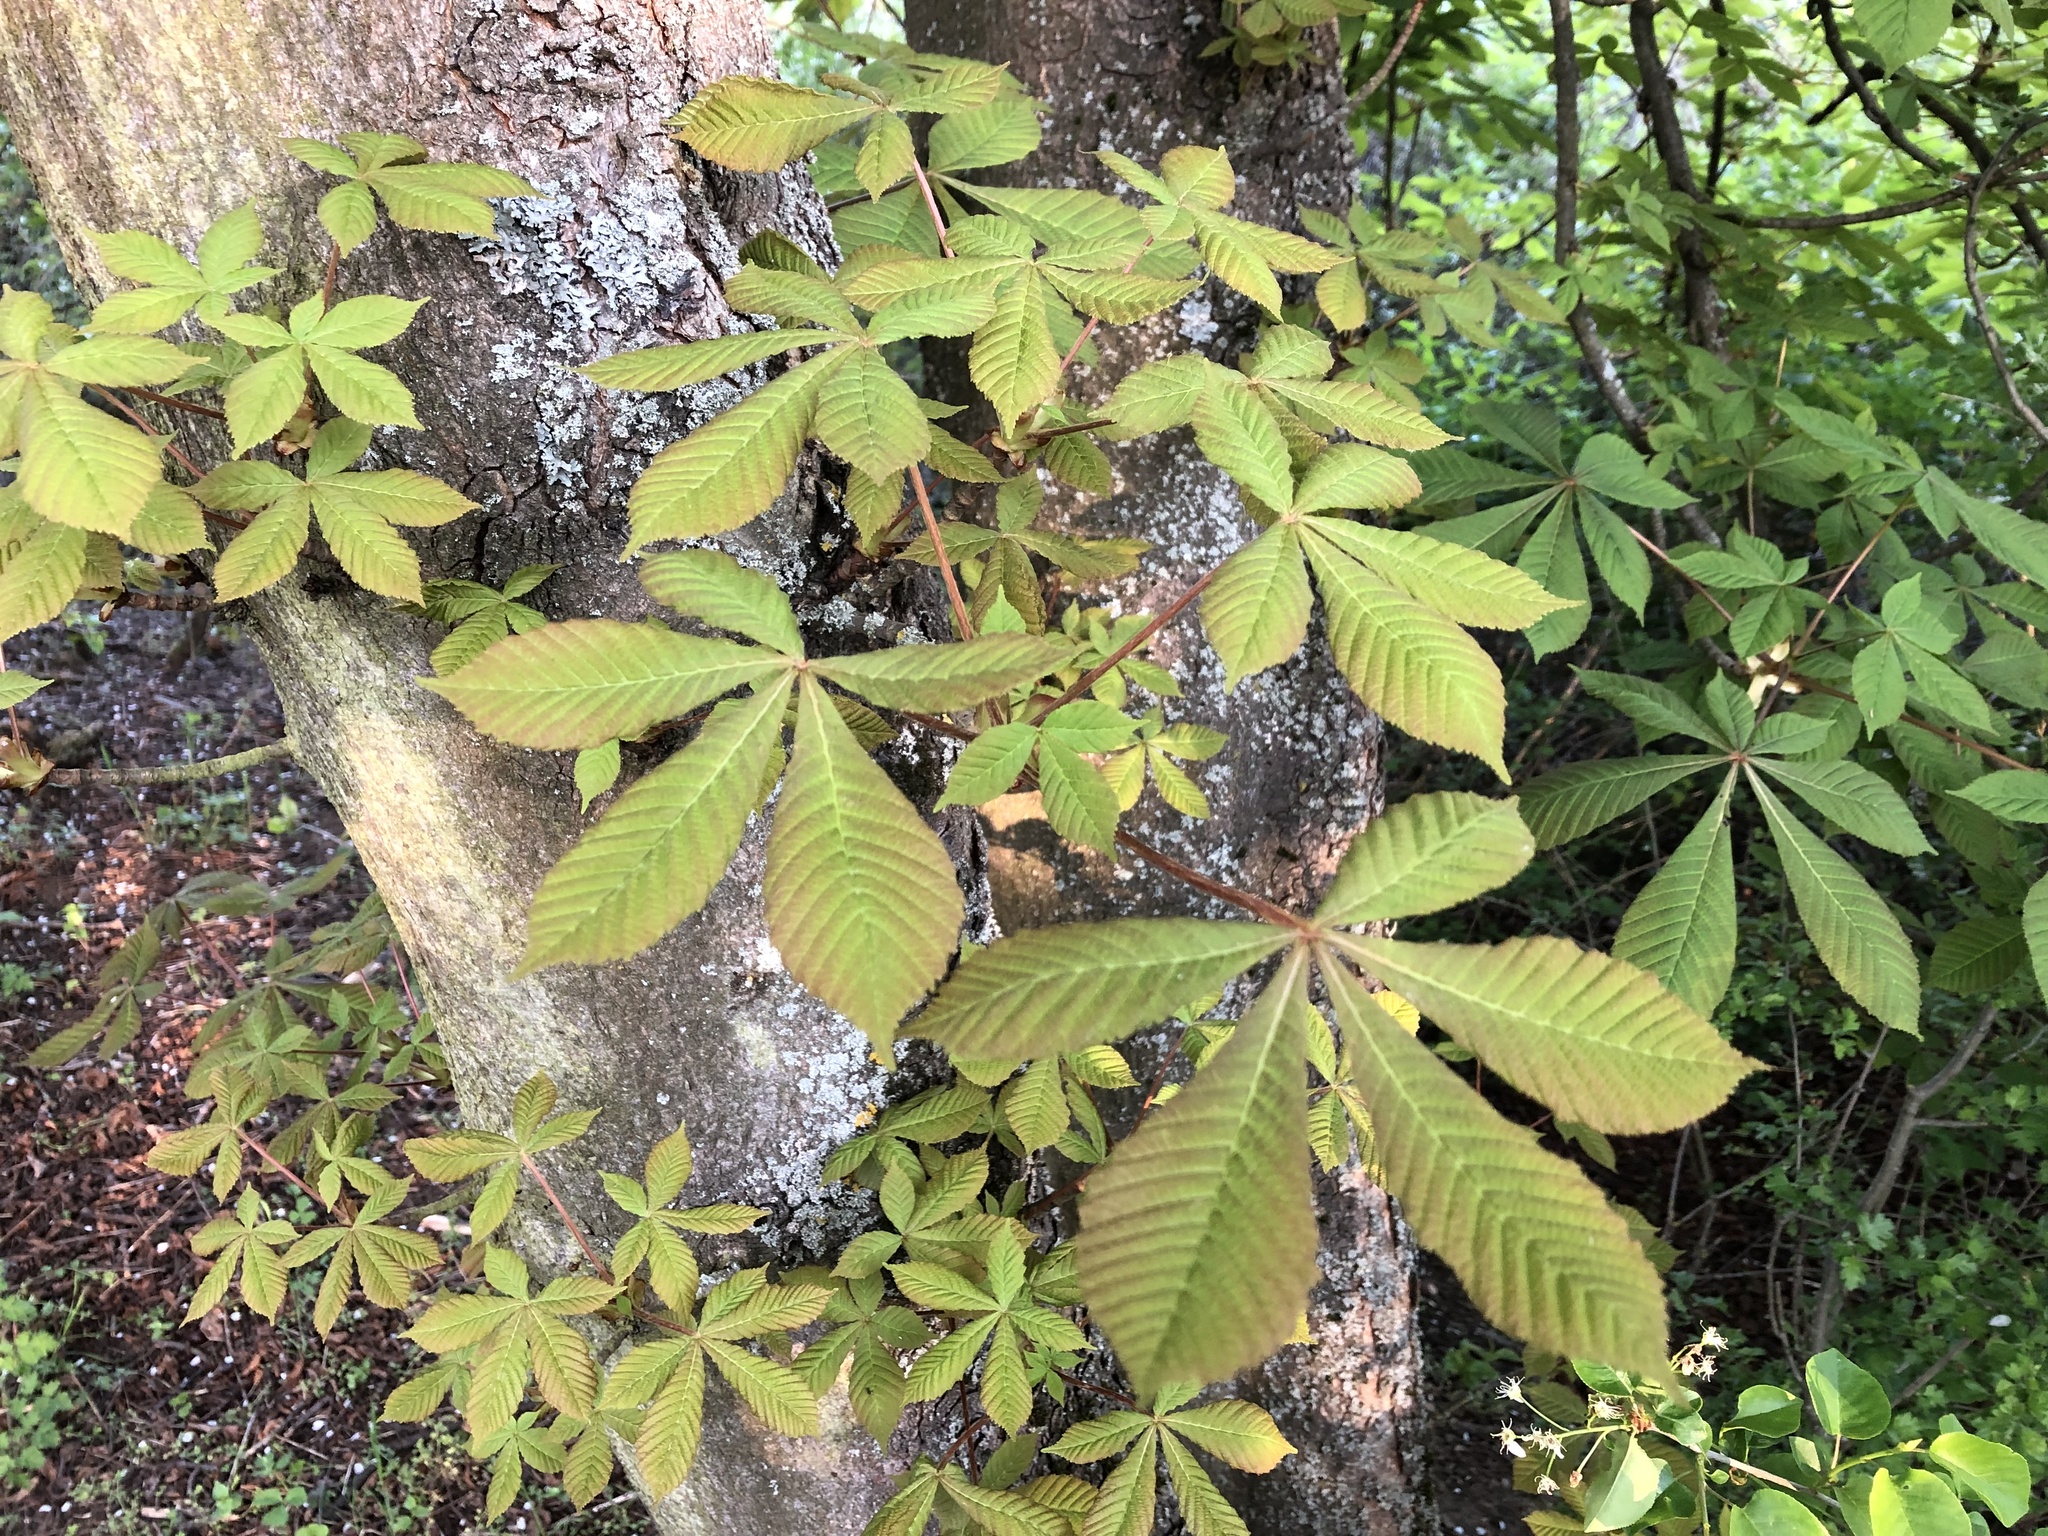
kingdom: Plantae
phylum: Tracheophyta
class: Magnoliopsida
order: Sapindales
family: Sapindaceae
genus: Aesculus
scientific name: Aesculus hippocastanum
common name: Horse-chestnut
